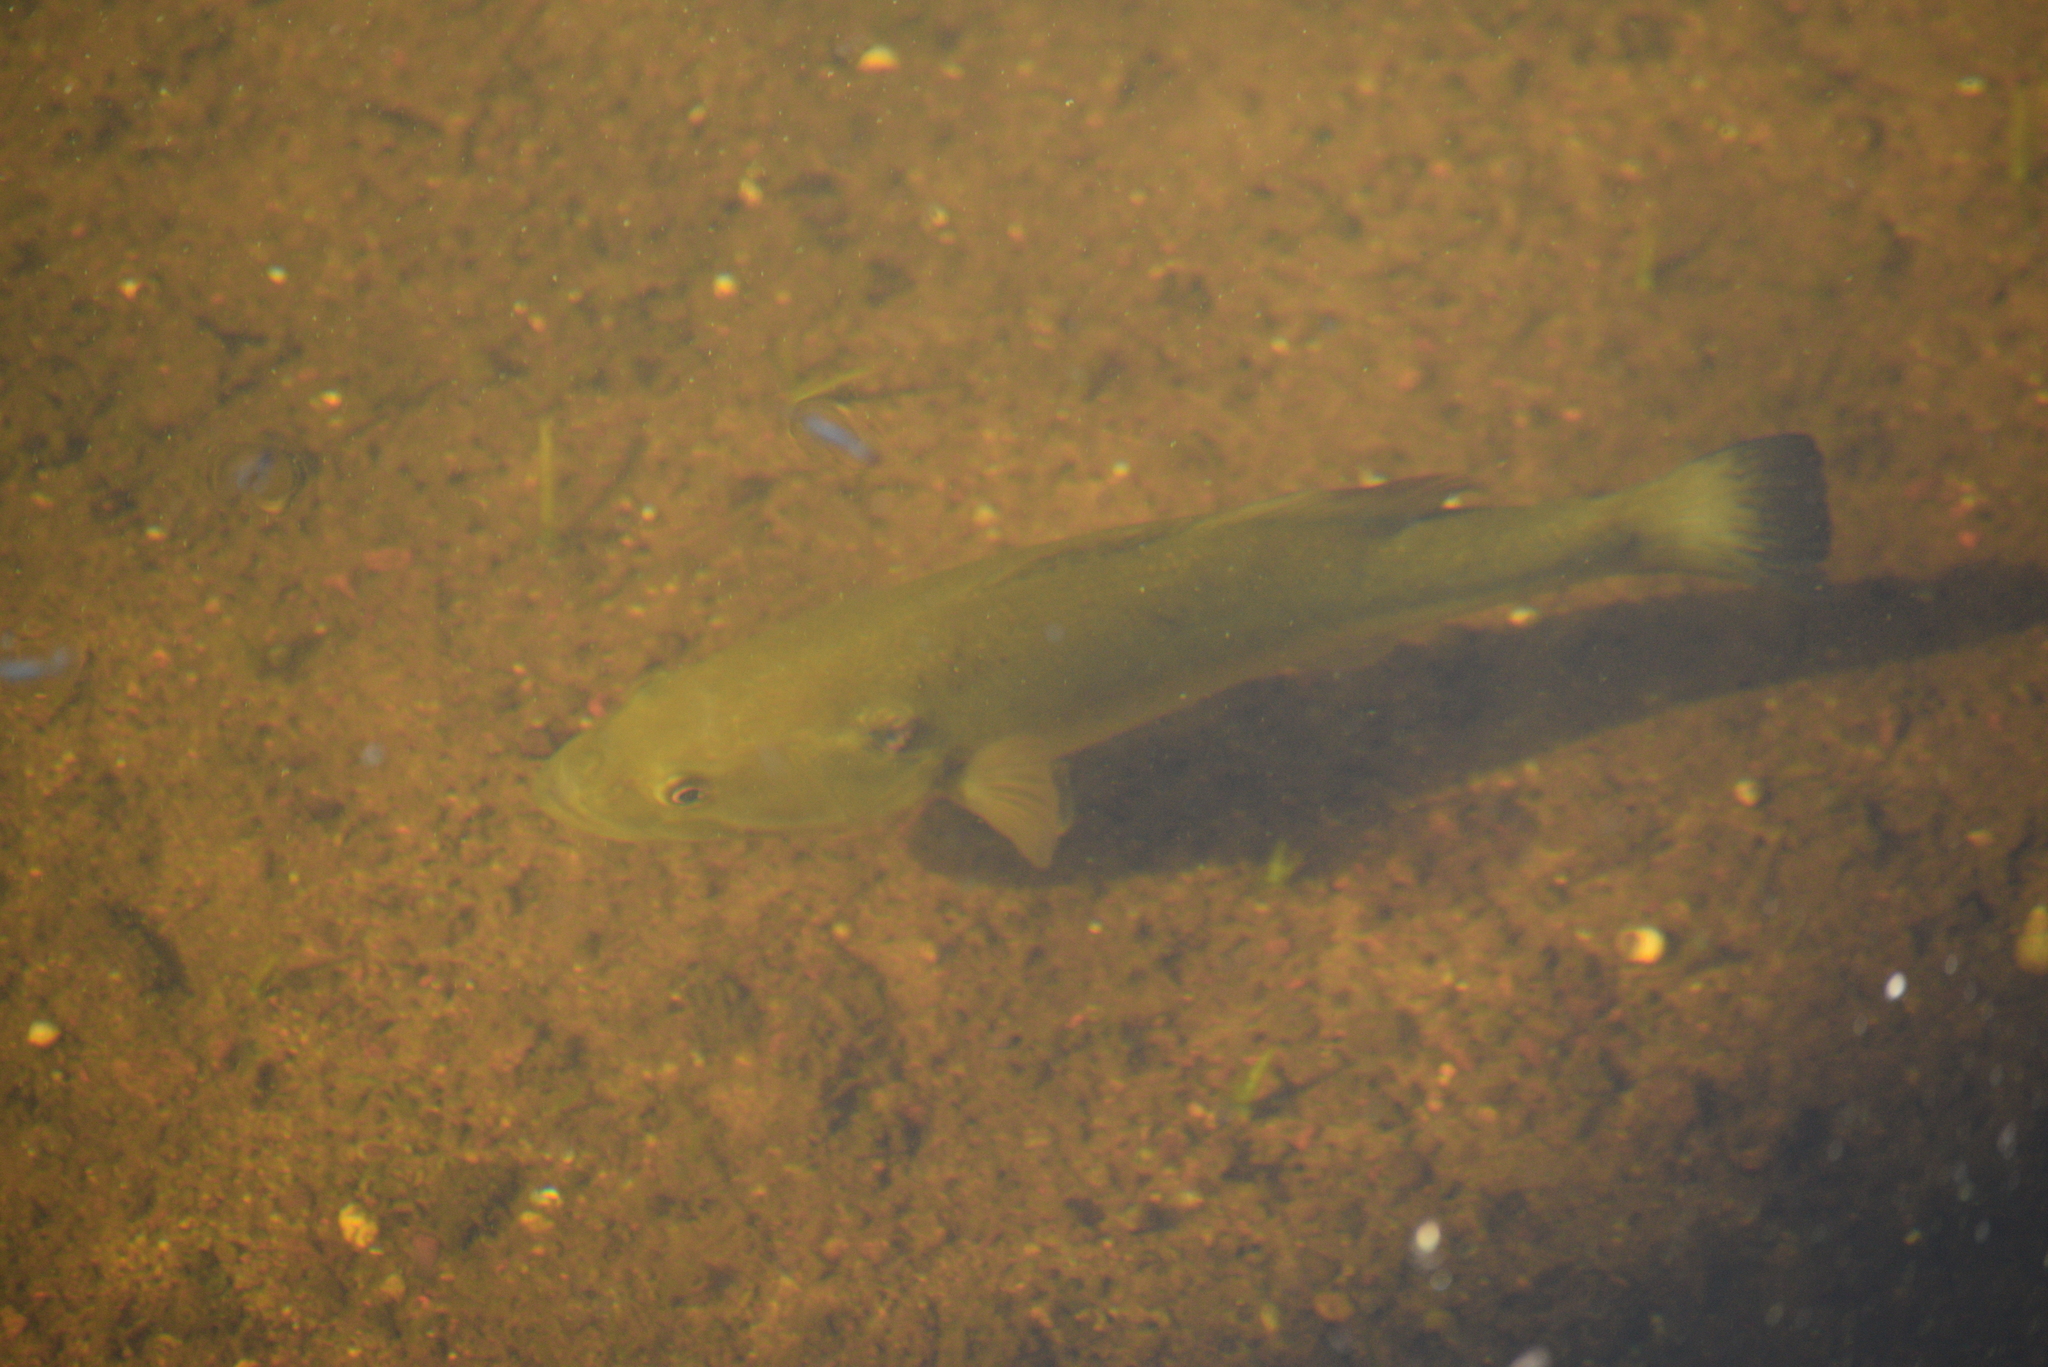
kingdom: Animalia
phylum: Chordata
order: Perciformes
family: Centrarchidae
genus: Micropterus
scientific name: Micropterus
